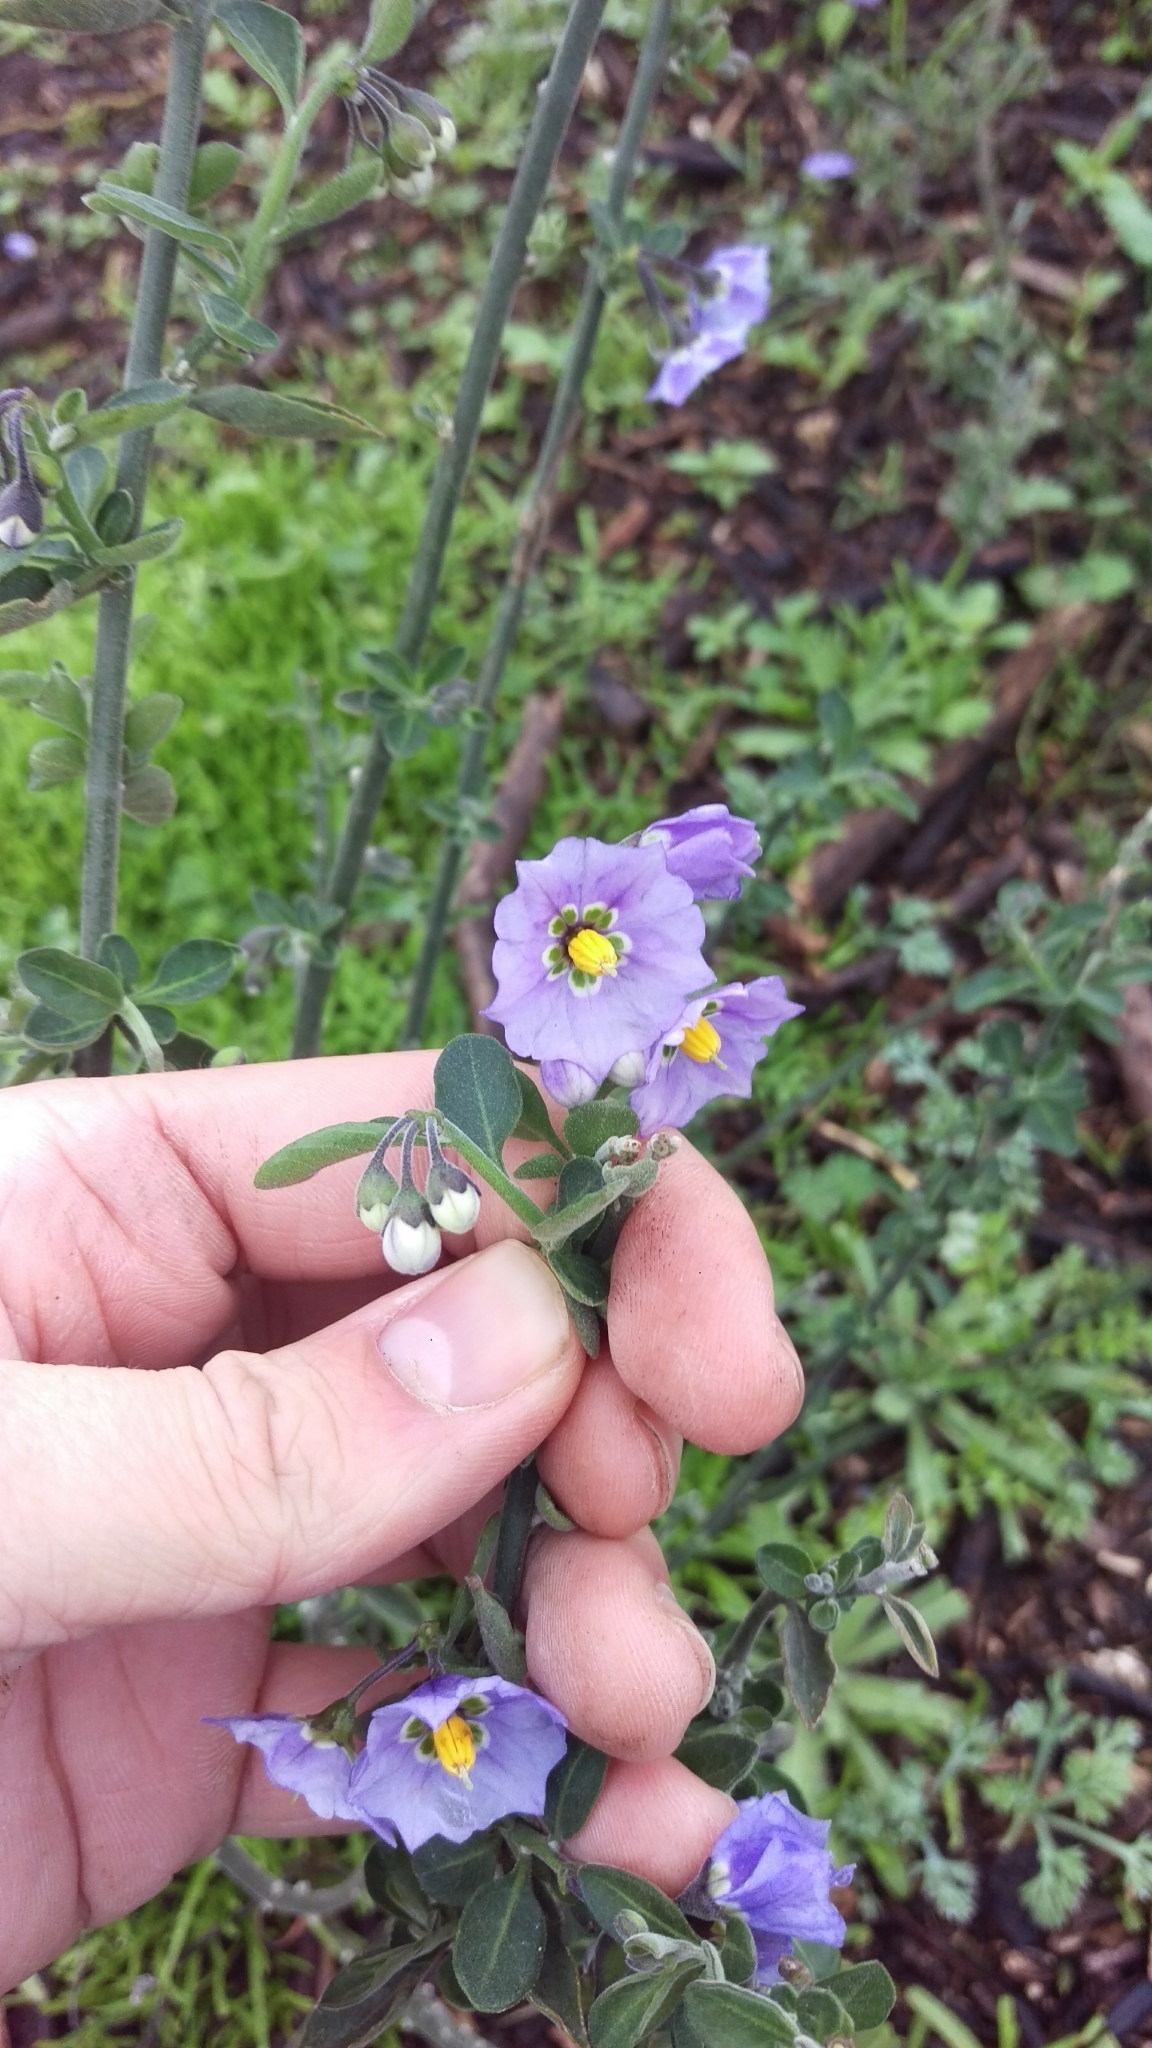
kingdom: Plantae
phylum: Tracheophyta
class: Magnoliopsida
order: Solanales
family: Solanaceae
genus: Solanum
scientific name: Solanum umbelliferum
